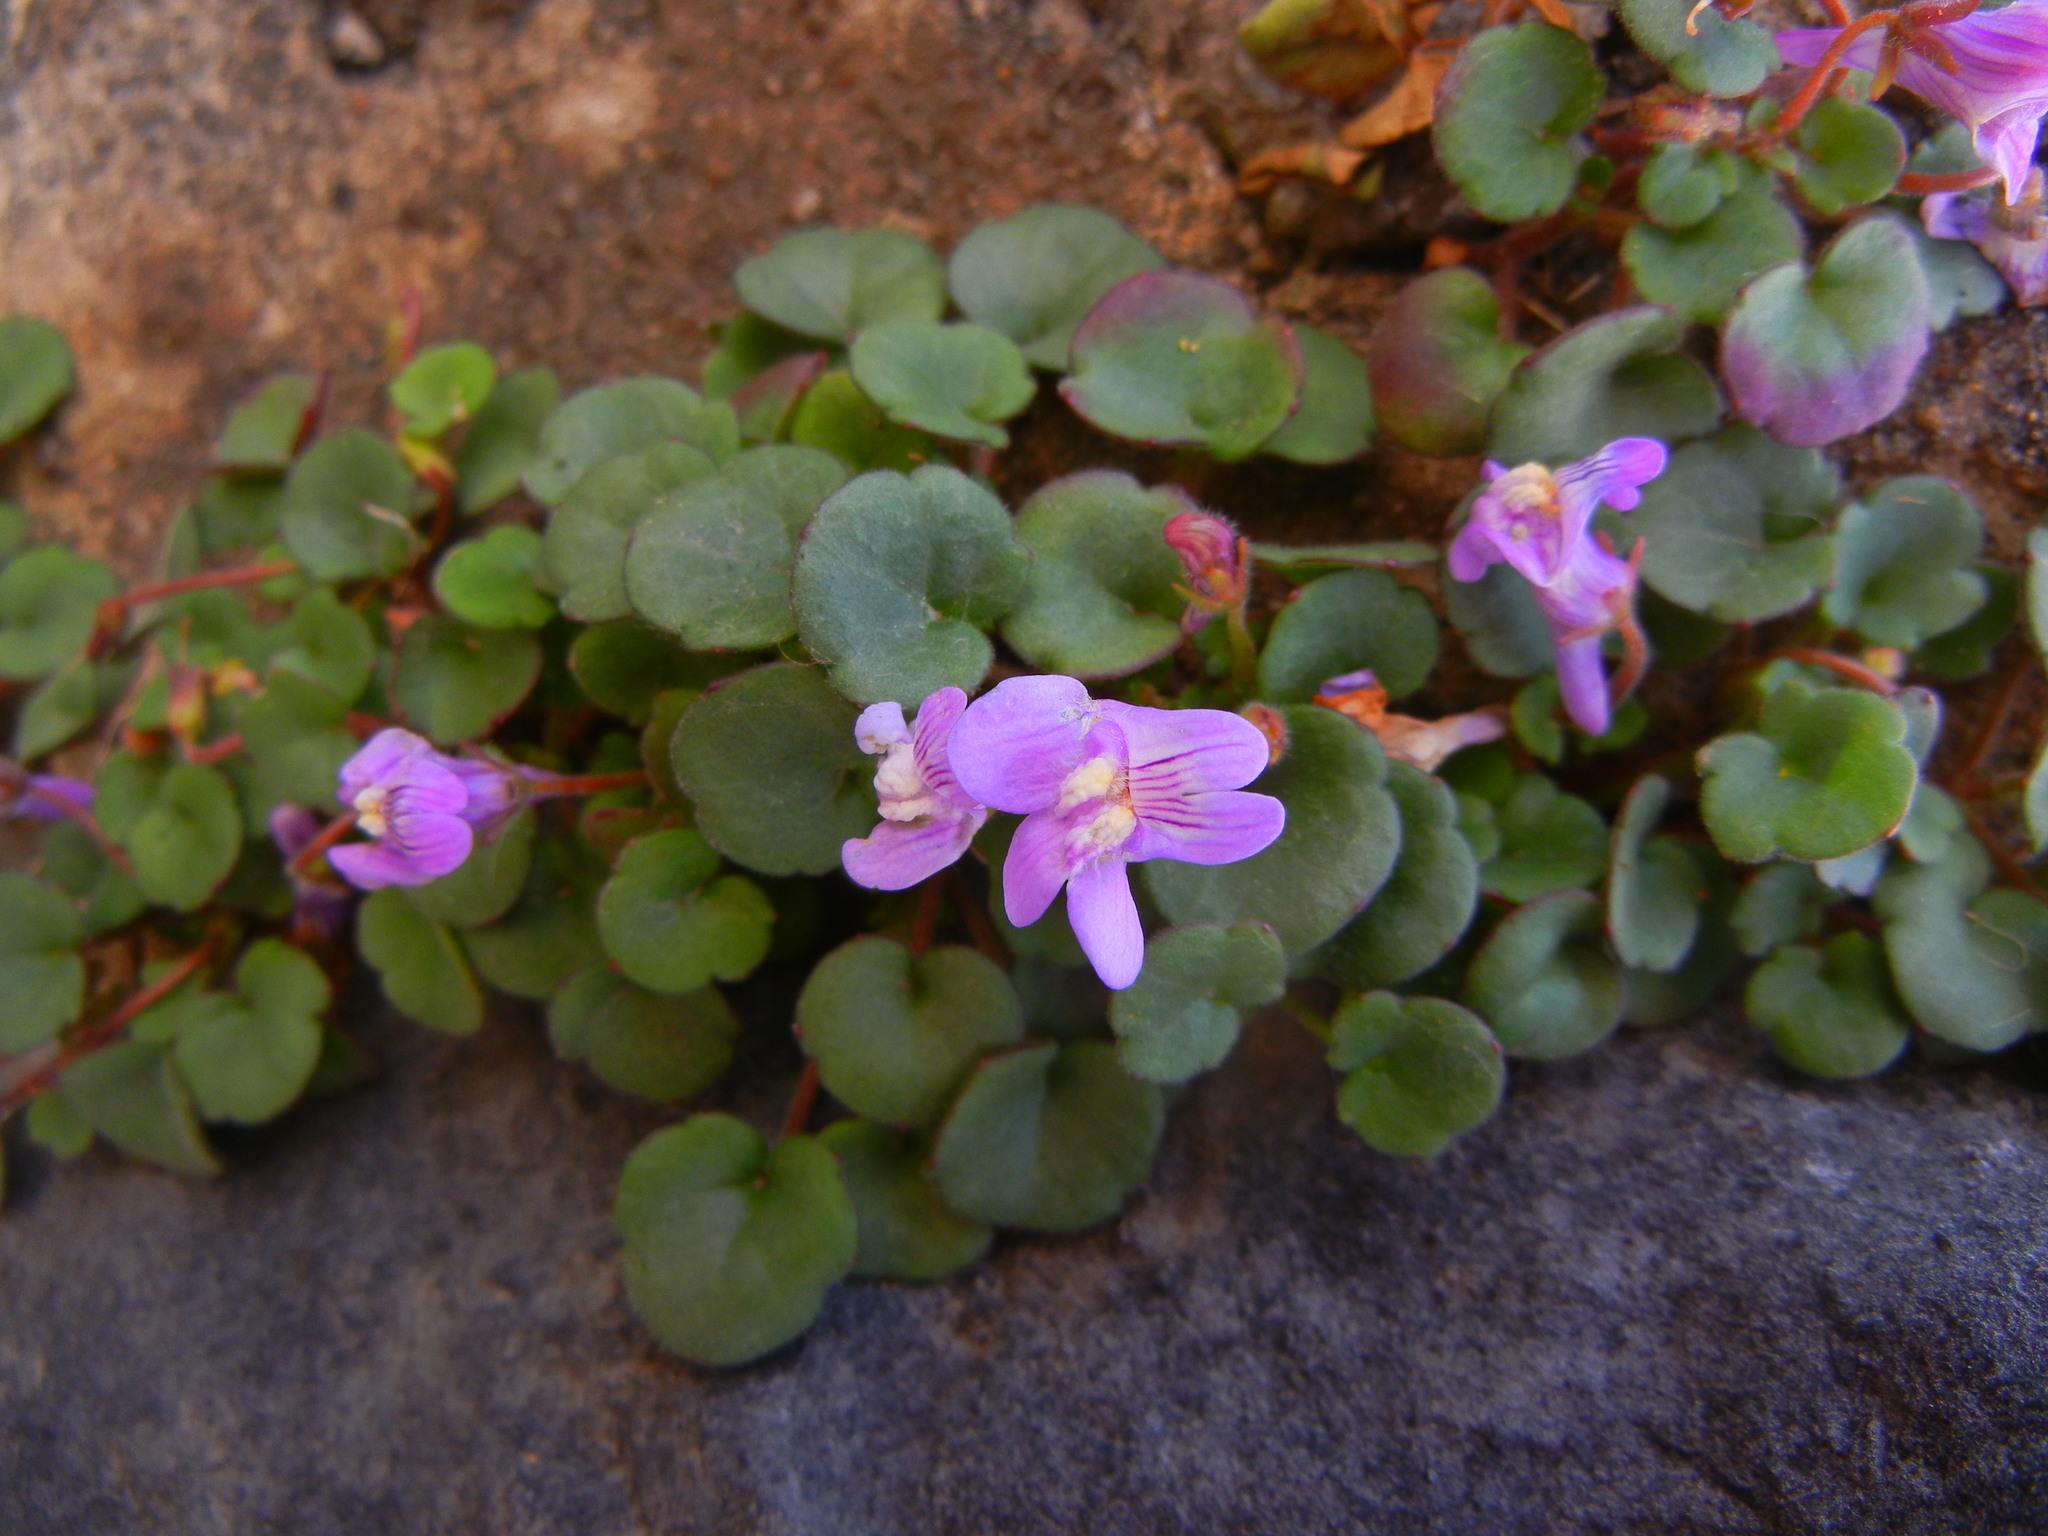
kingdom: Plantae
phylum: Tracheophyta
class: Magnoliopsida
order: Lamiales
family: Plantaginaceae
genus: Cymbalaria
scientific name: Cymbalaria pallida
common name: Italian toadflax
